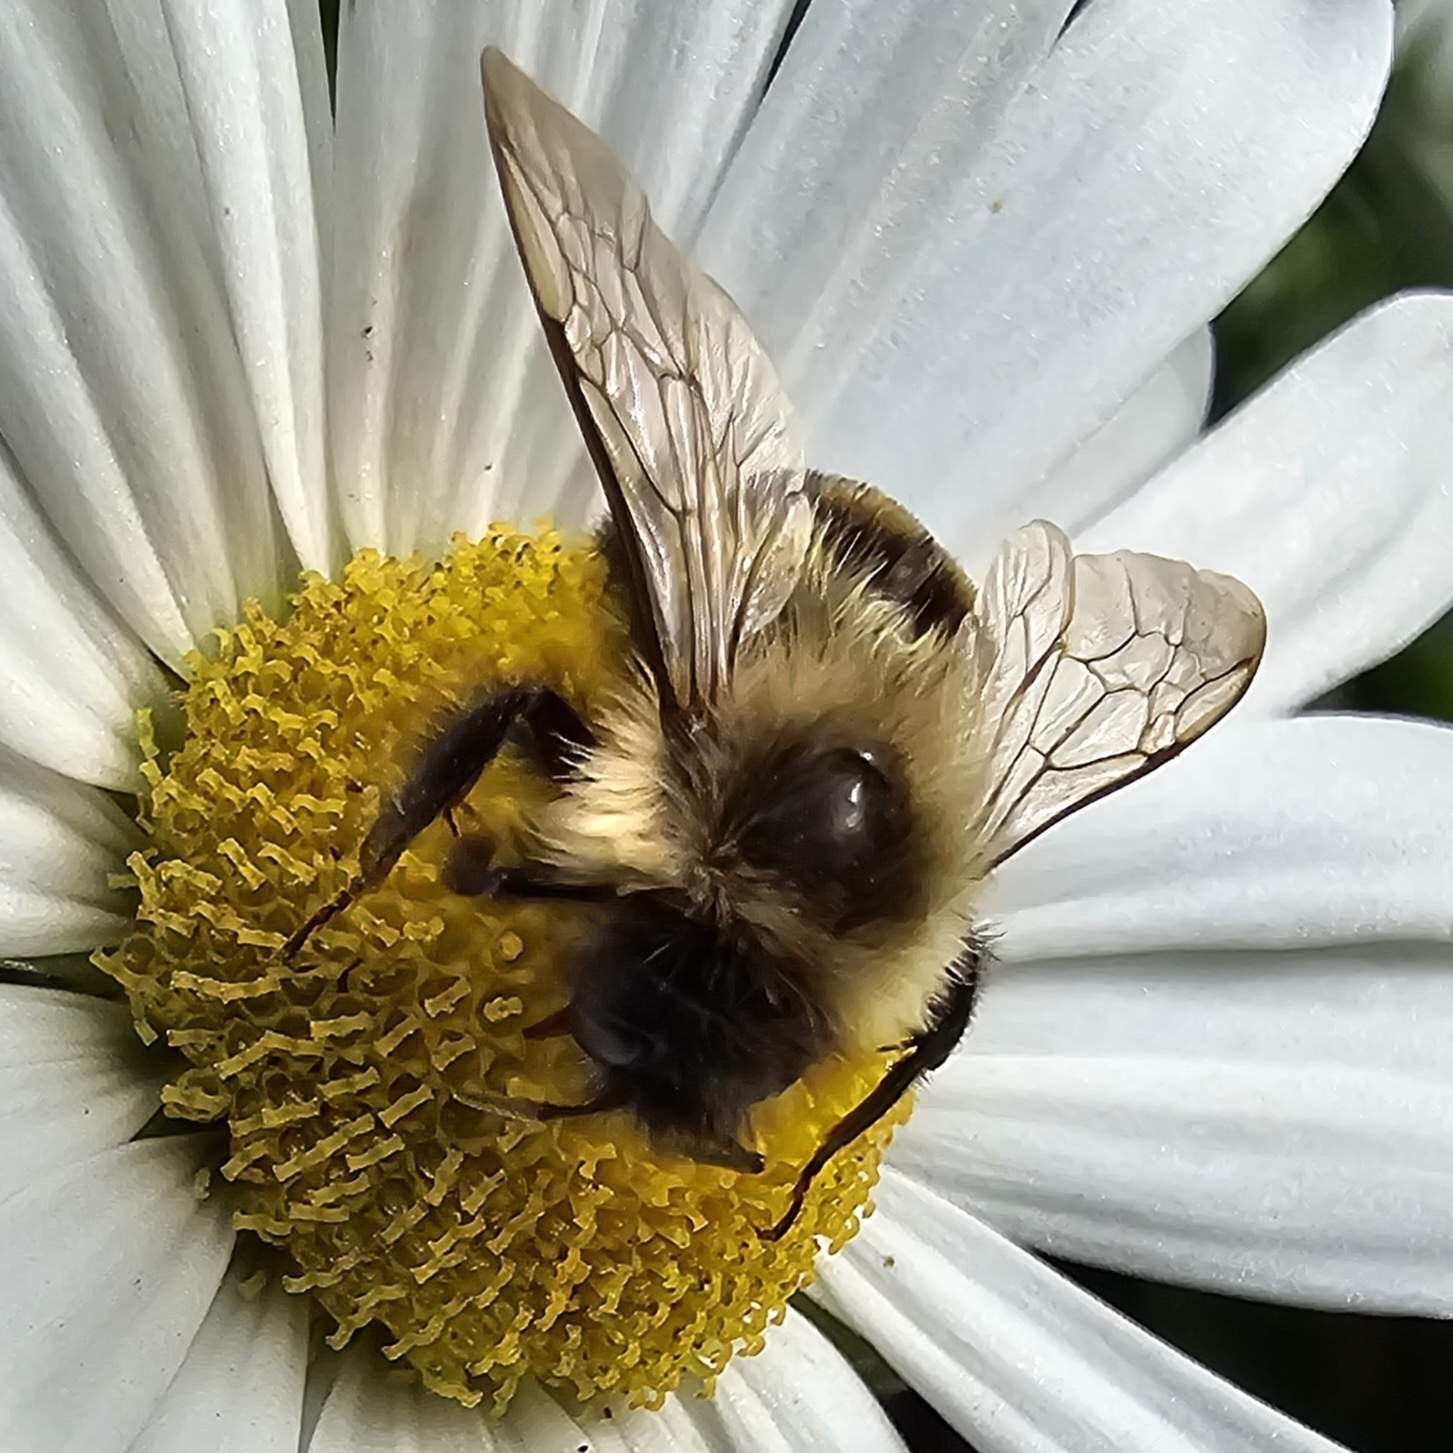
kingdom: Animalia
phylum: Arthropoda
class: Insecta
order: Hymenoptera
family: Apidae
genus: Bombus
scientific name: Bombus impatiens
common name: Common eastern bumble bee
